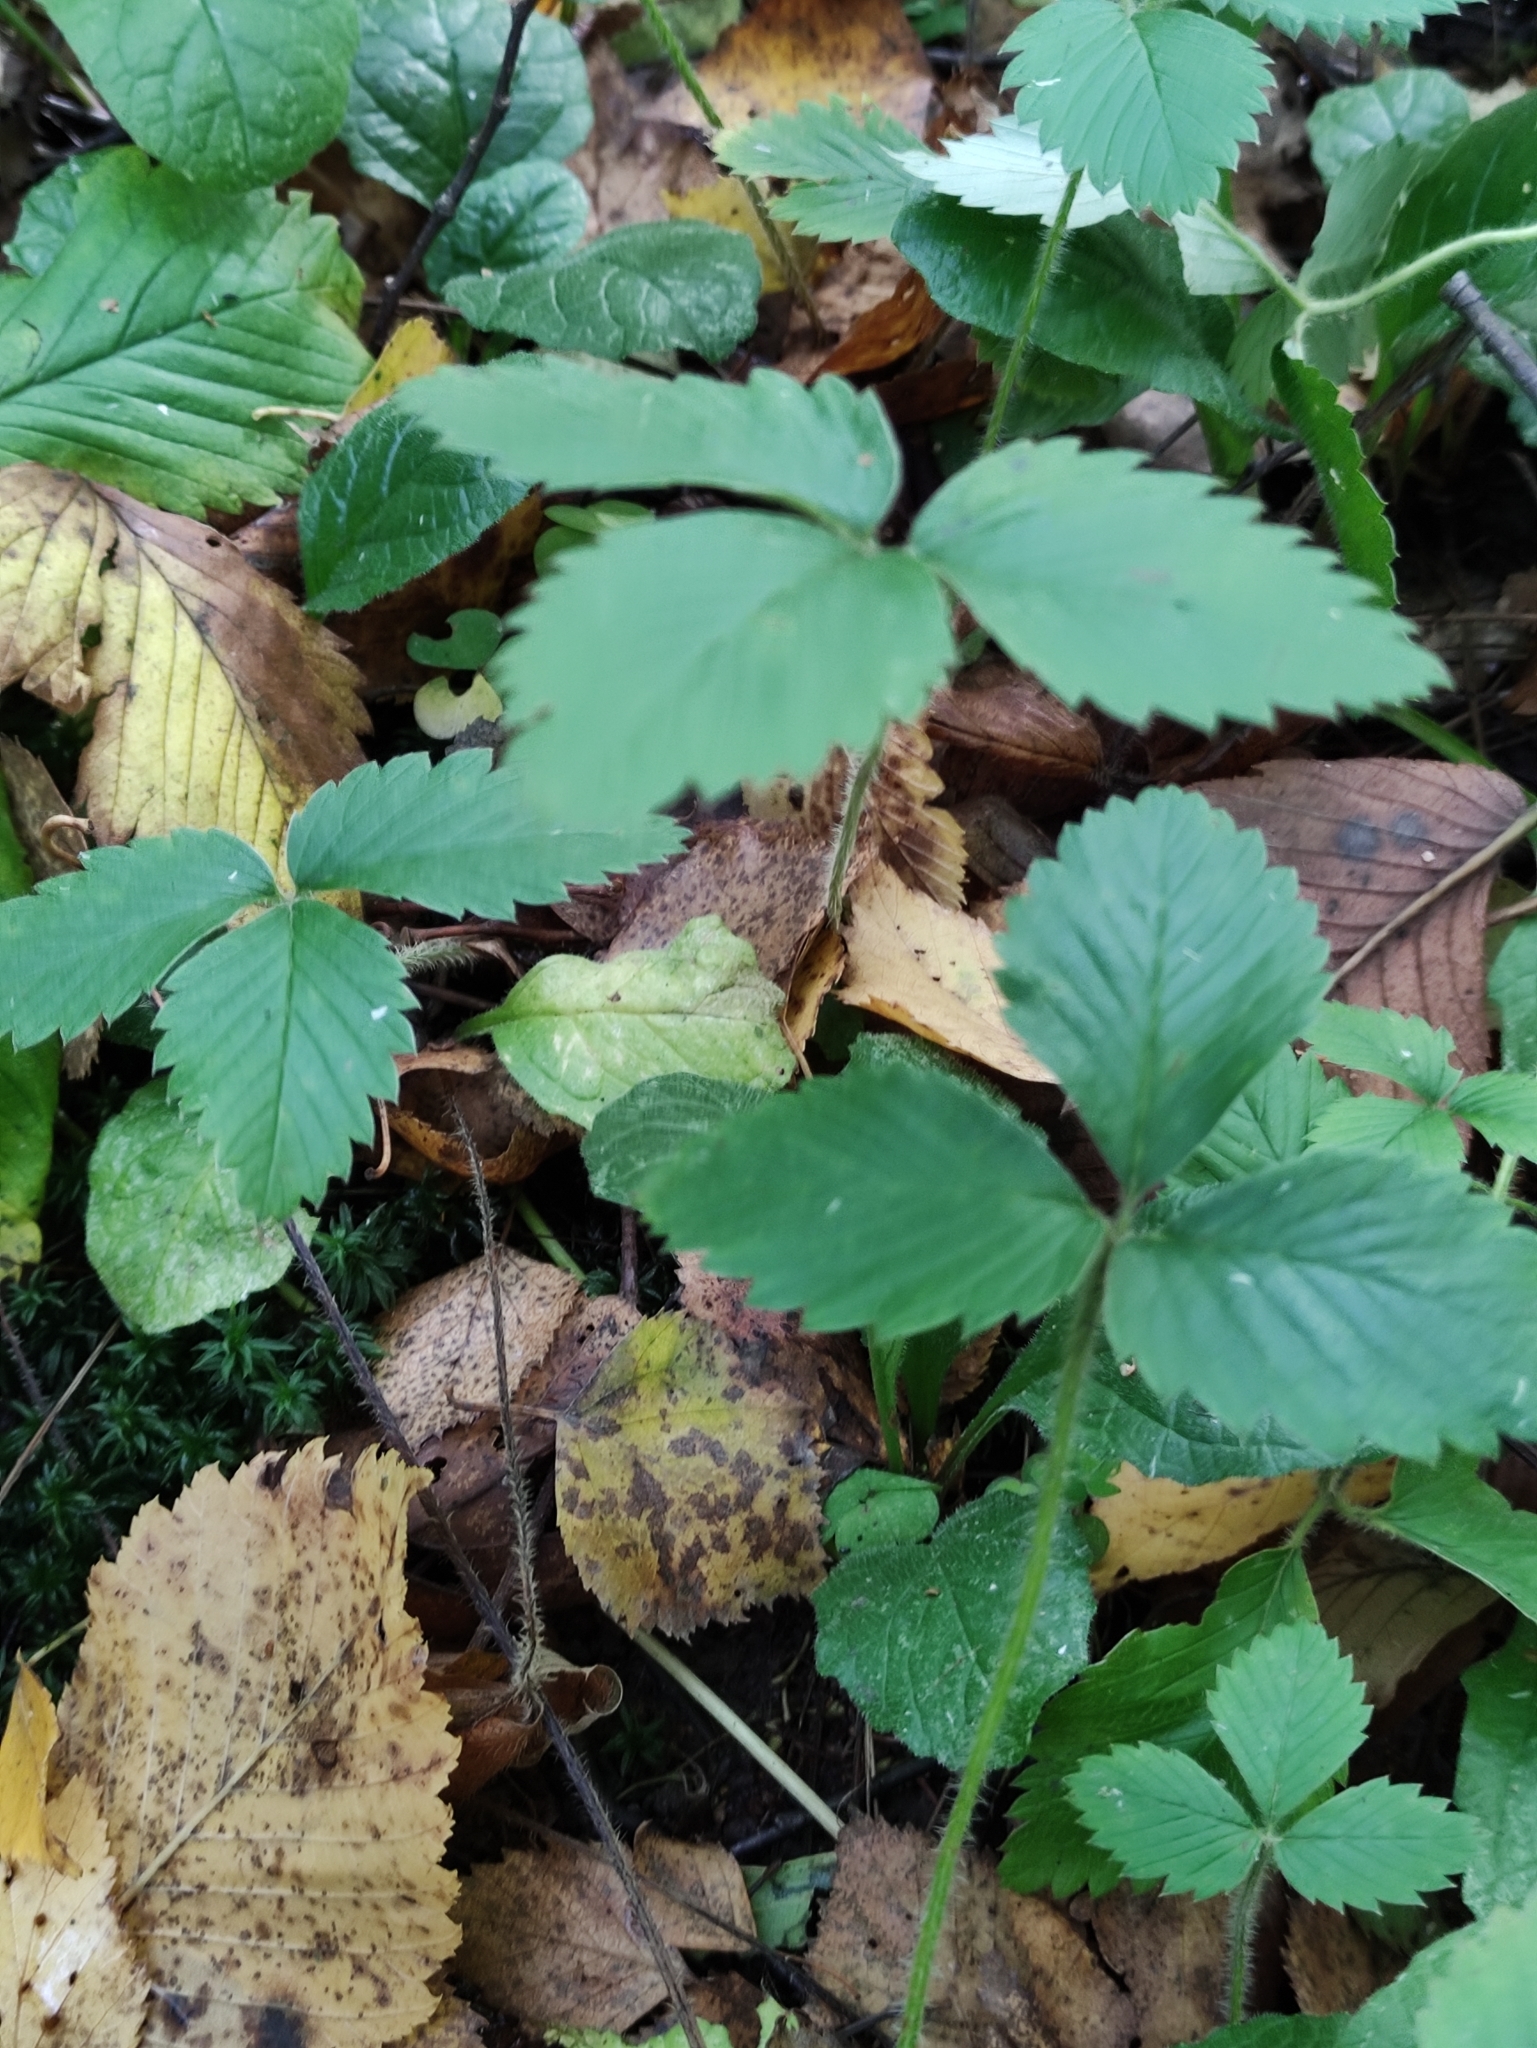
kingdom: Plantae
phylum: Tracheophyta
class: Magnoliopsida
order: Rosales
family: Rosaceae
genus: Fragaria
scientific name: Fragaria moschata
